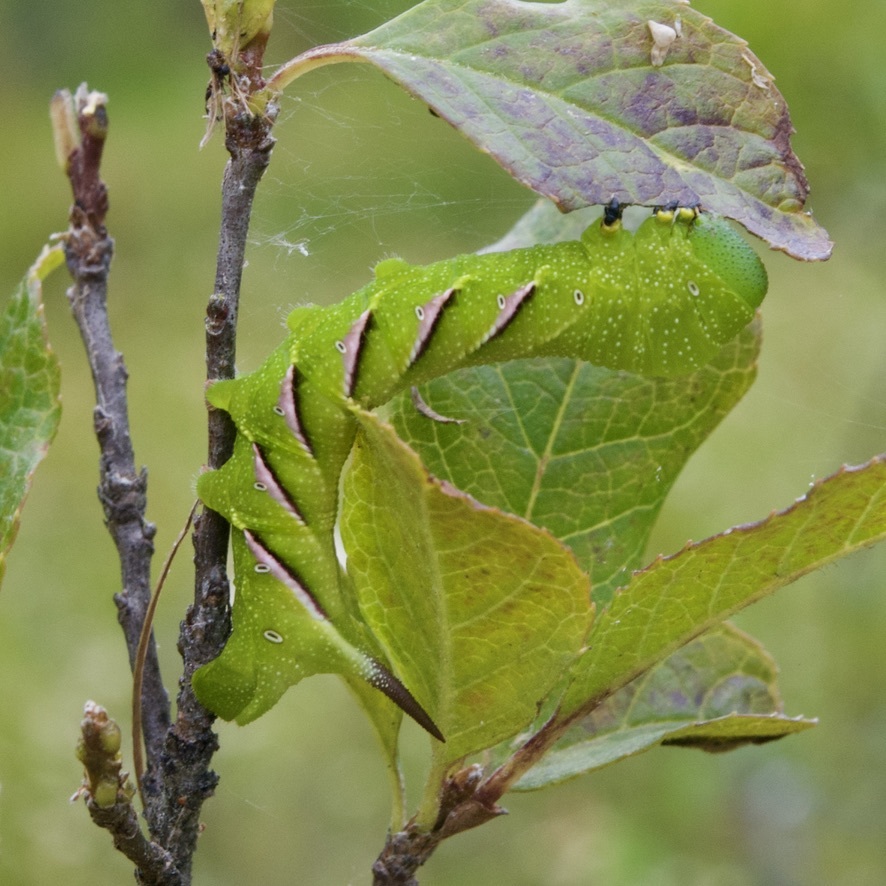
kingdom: Animalia
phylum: Arthropoda
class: Insecta
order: Lepidoptera
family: Sphingidae
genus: Dolba
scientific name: Dolba hyloeus
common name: Pawpaw sphinx
